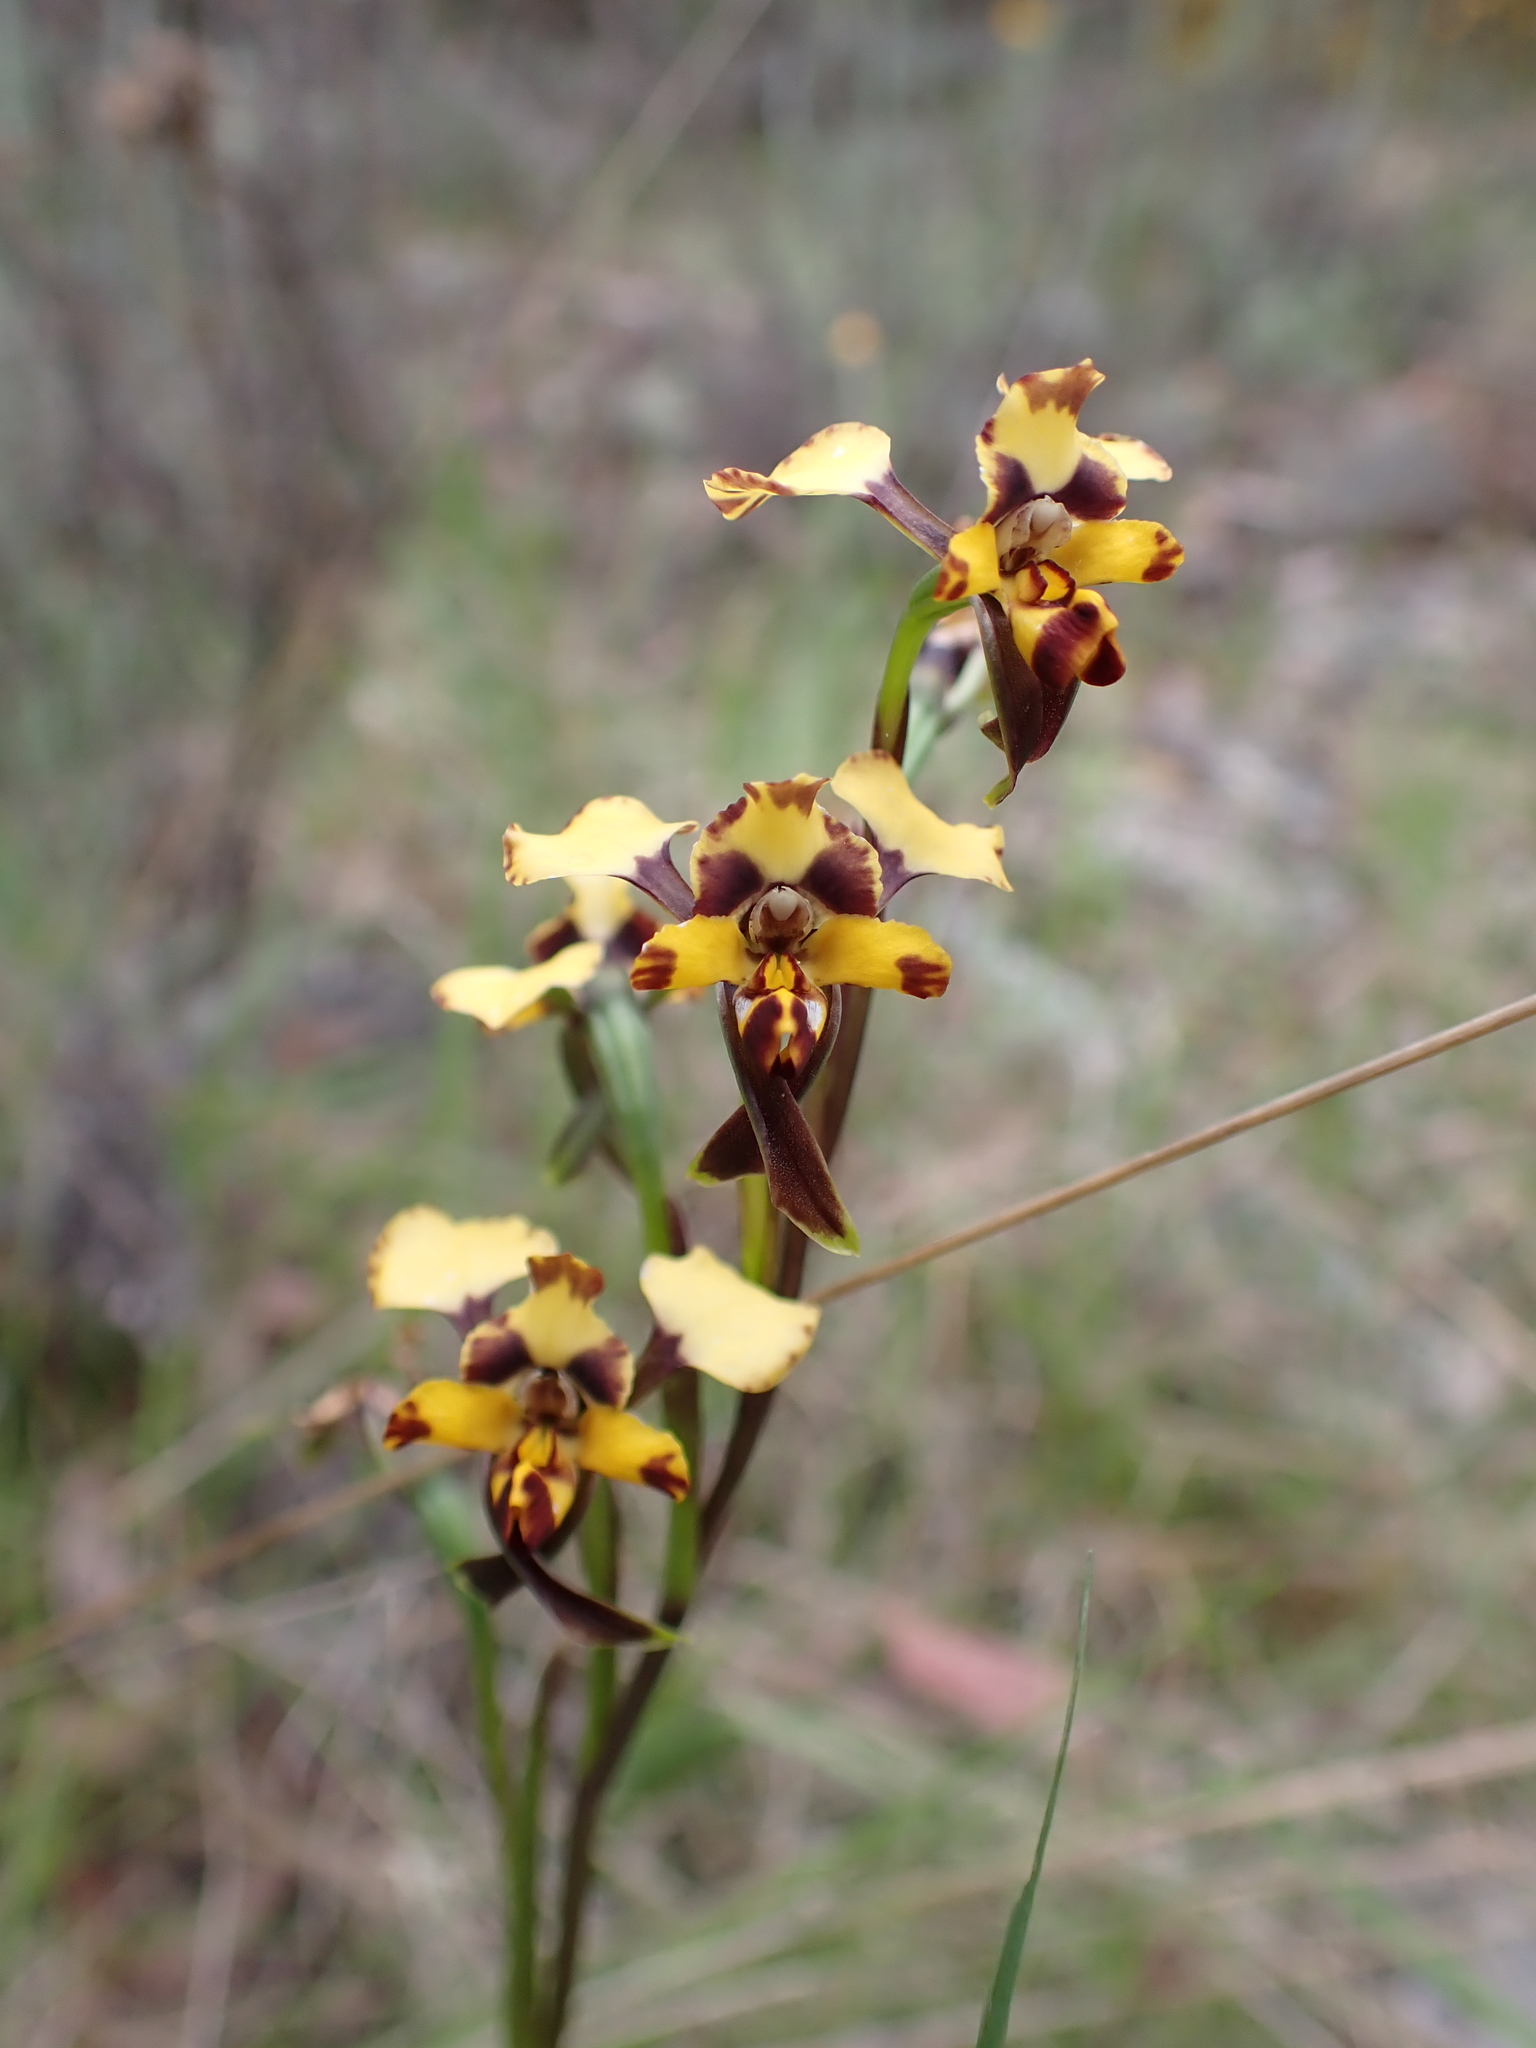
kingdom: Plantae
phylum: Tracheophyta
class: Liliopsida
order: Asparagales
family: Orchidaceae
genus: Diuris
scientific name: Diuris pardina
